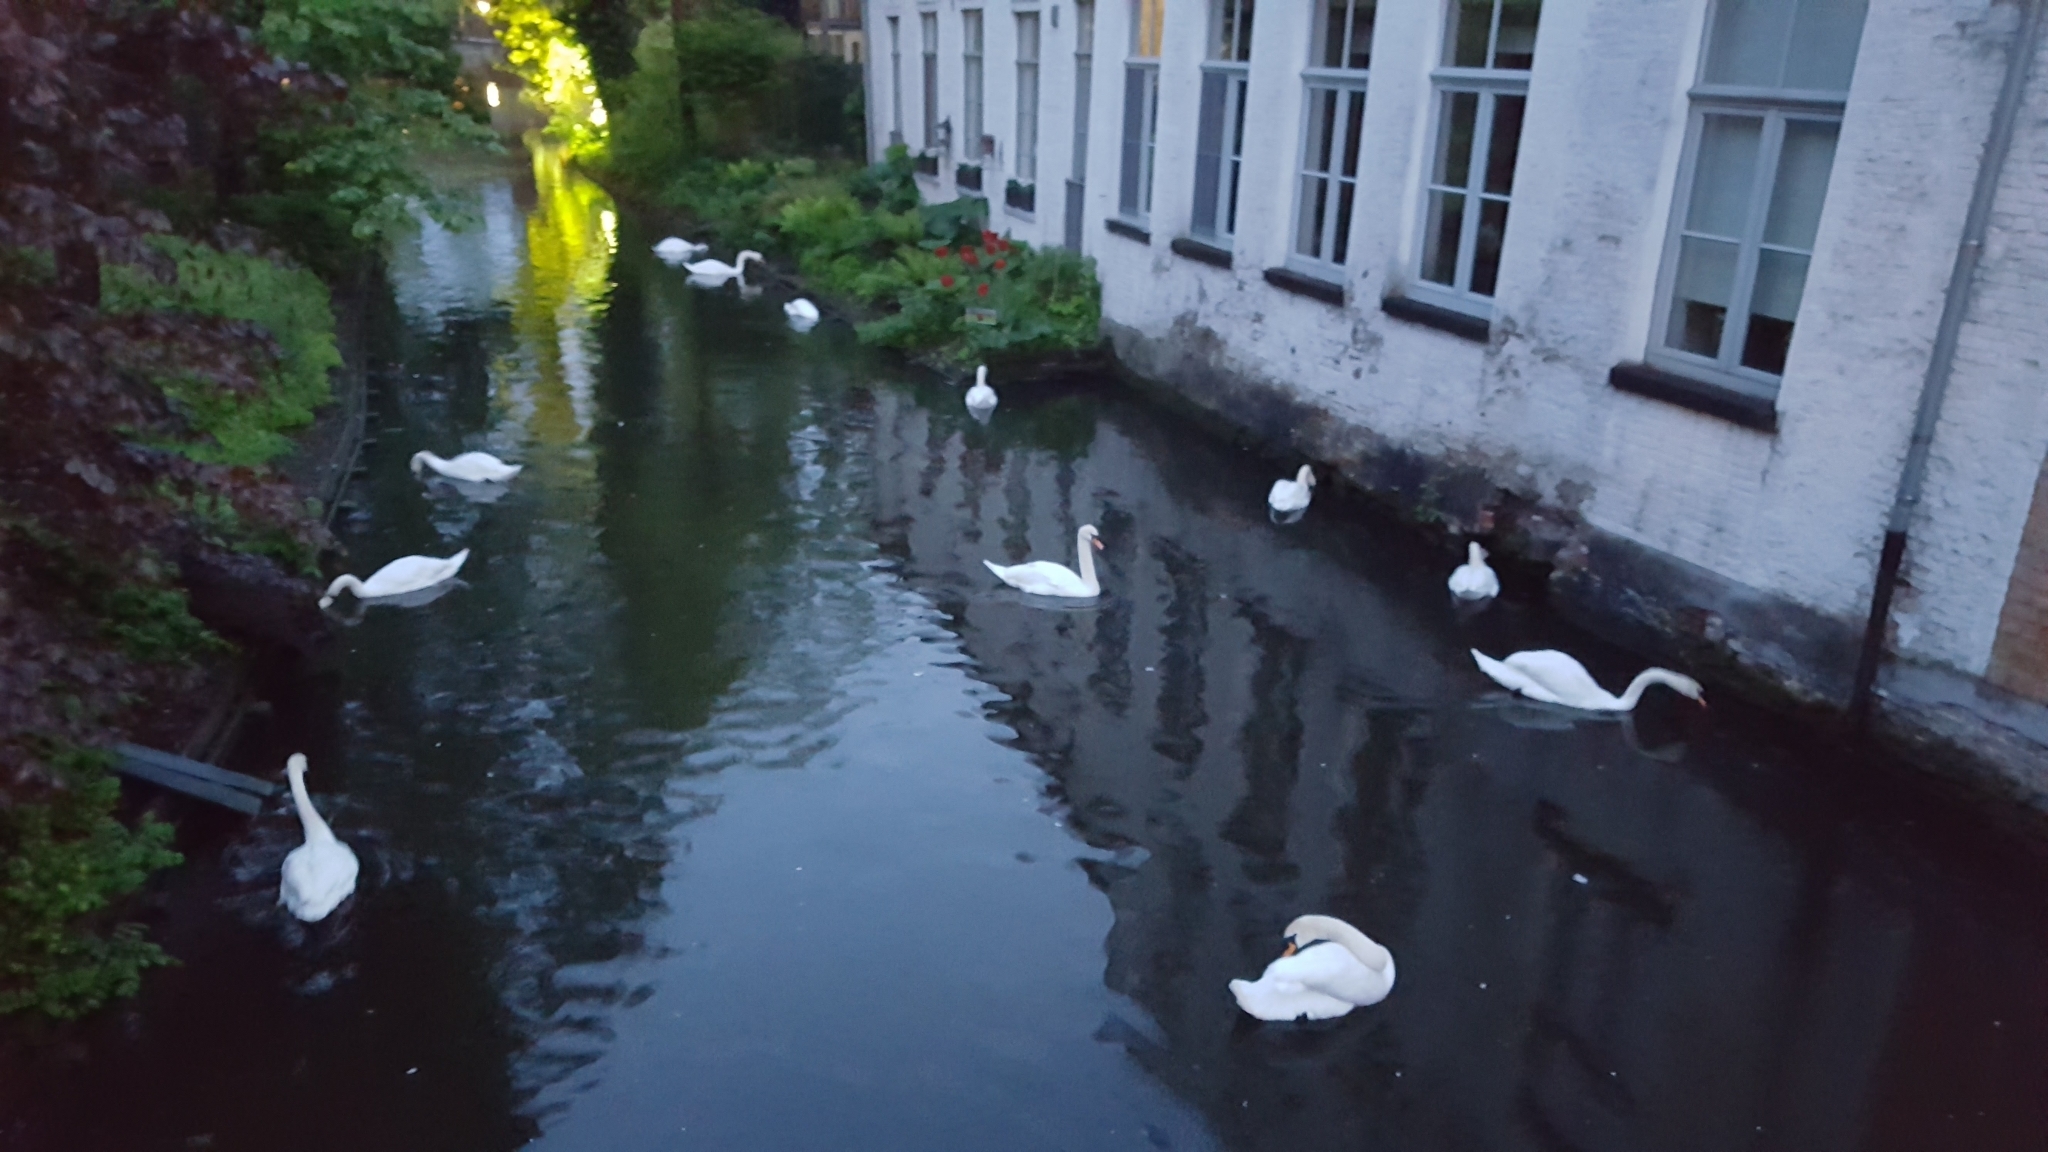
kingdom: Animalia
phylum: Chordata
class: Aves
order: Anseriformes
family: Anatidae
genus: Cygnus
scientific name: Cygnus olor
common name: Mute swan
